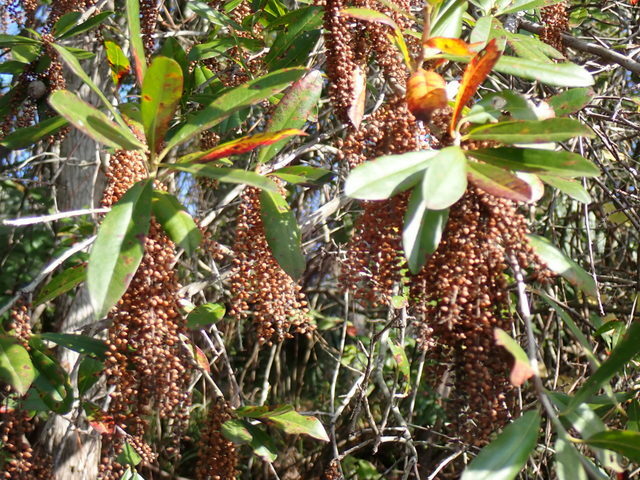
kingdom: Plantae
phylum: Tracheophyta
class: Magnoliopsida
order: Ericales
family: Cyrillaceae
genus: Cyrilla
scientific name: Cyrilla racemiflora
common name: Black titi
